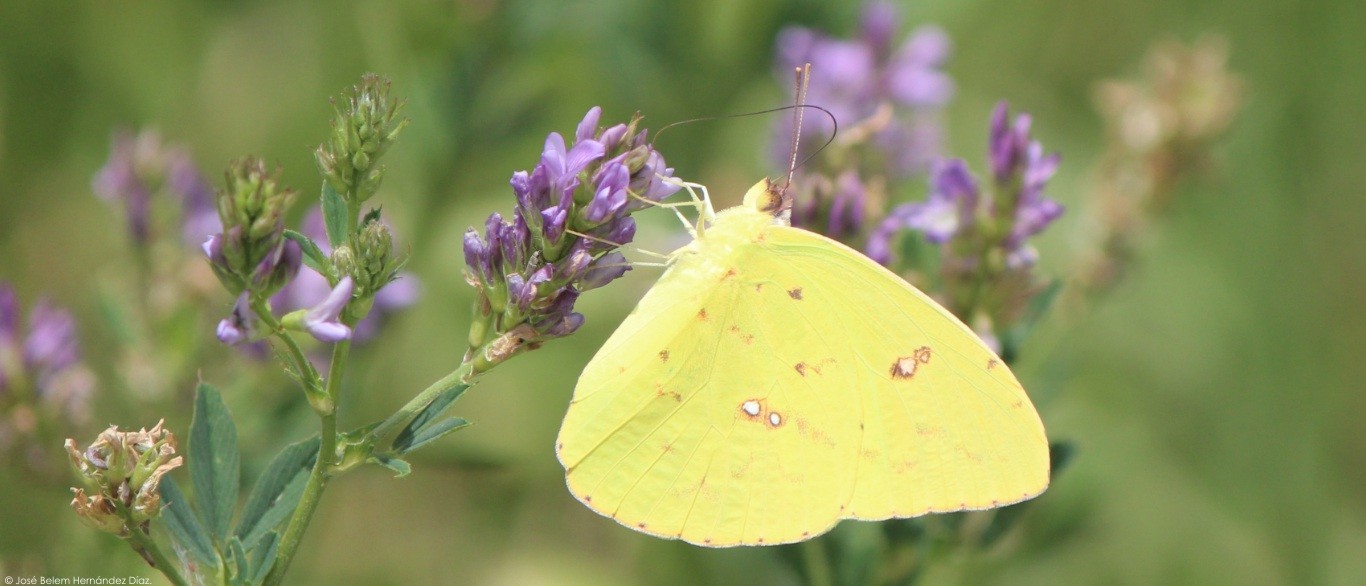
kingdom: Animalia
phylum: Arthropoda
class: Insecta
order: Lepidoptera
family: Pieridae
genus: Phoebis
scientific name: Phoebis marcellina
